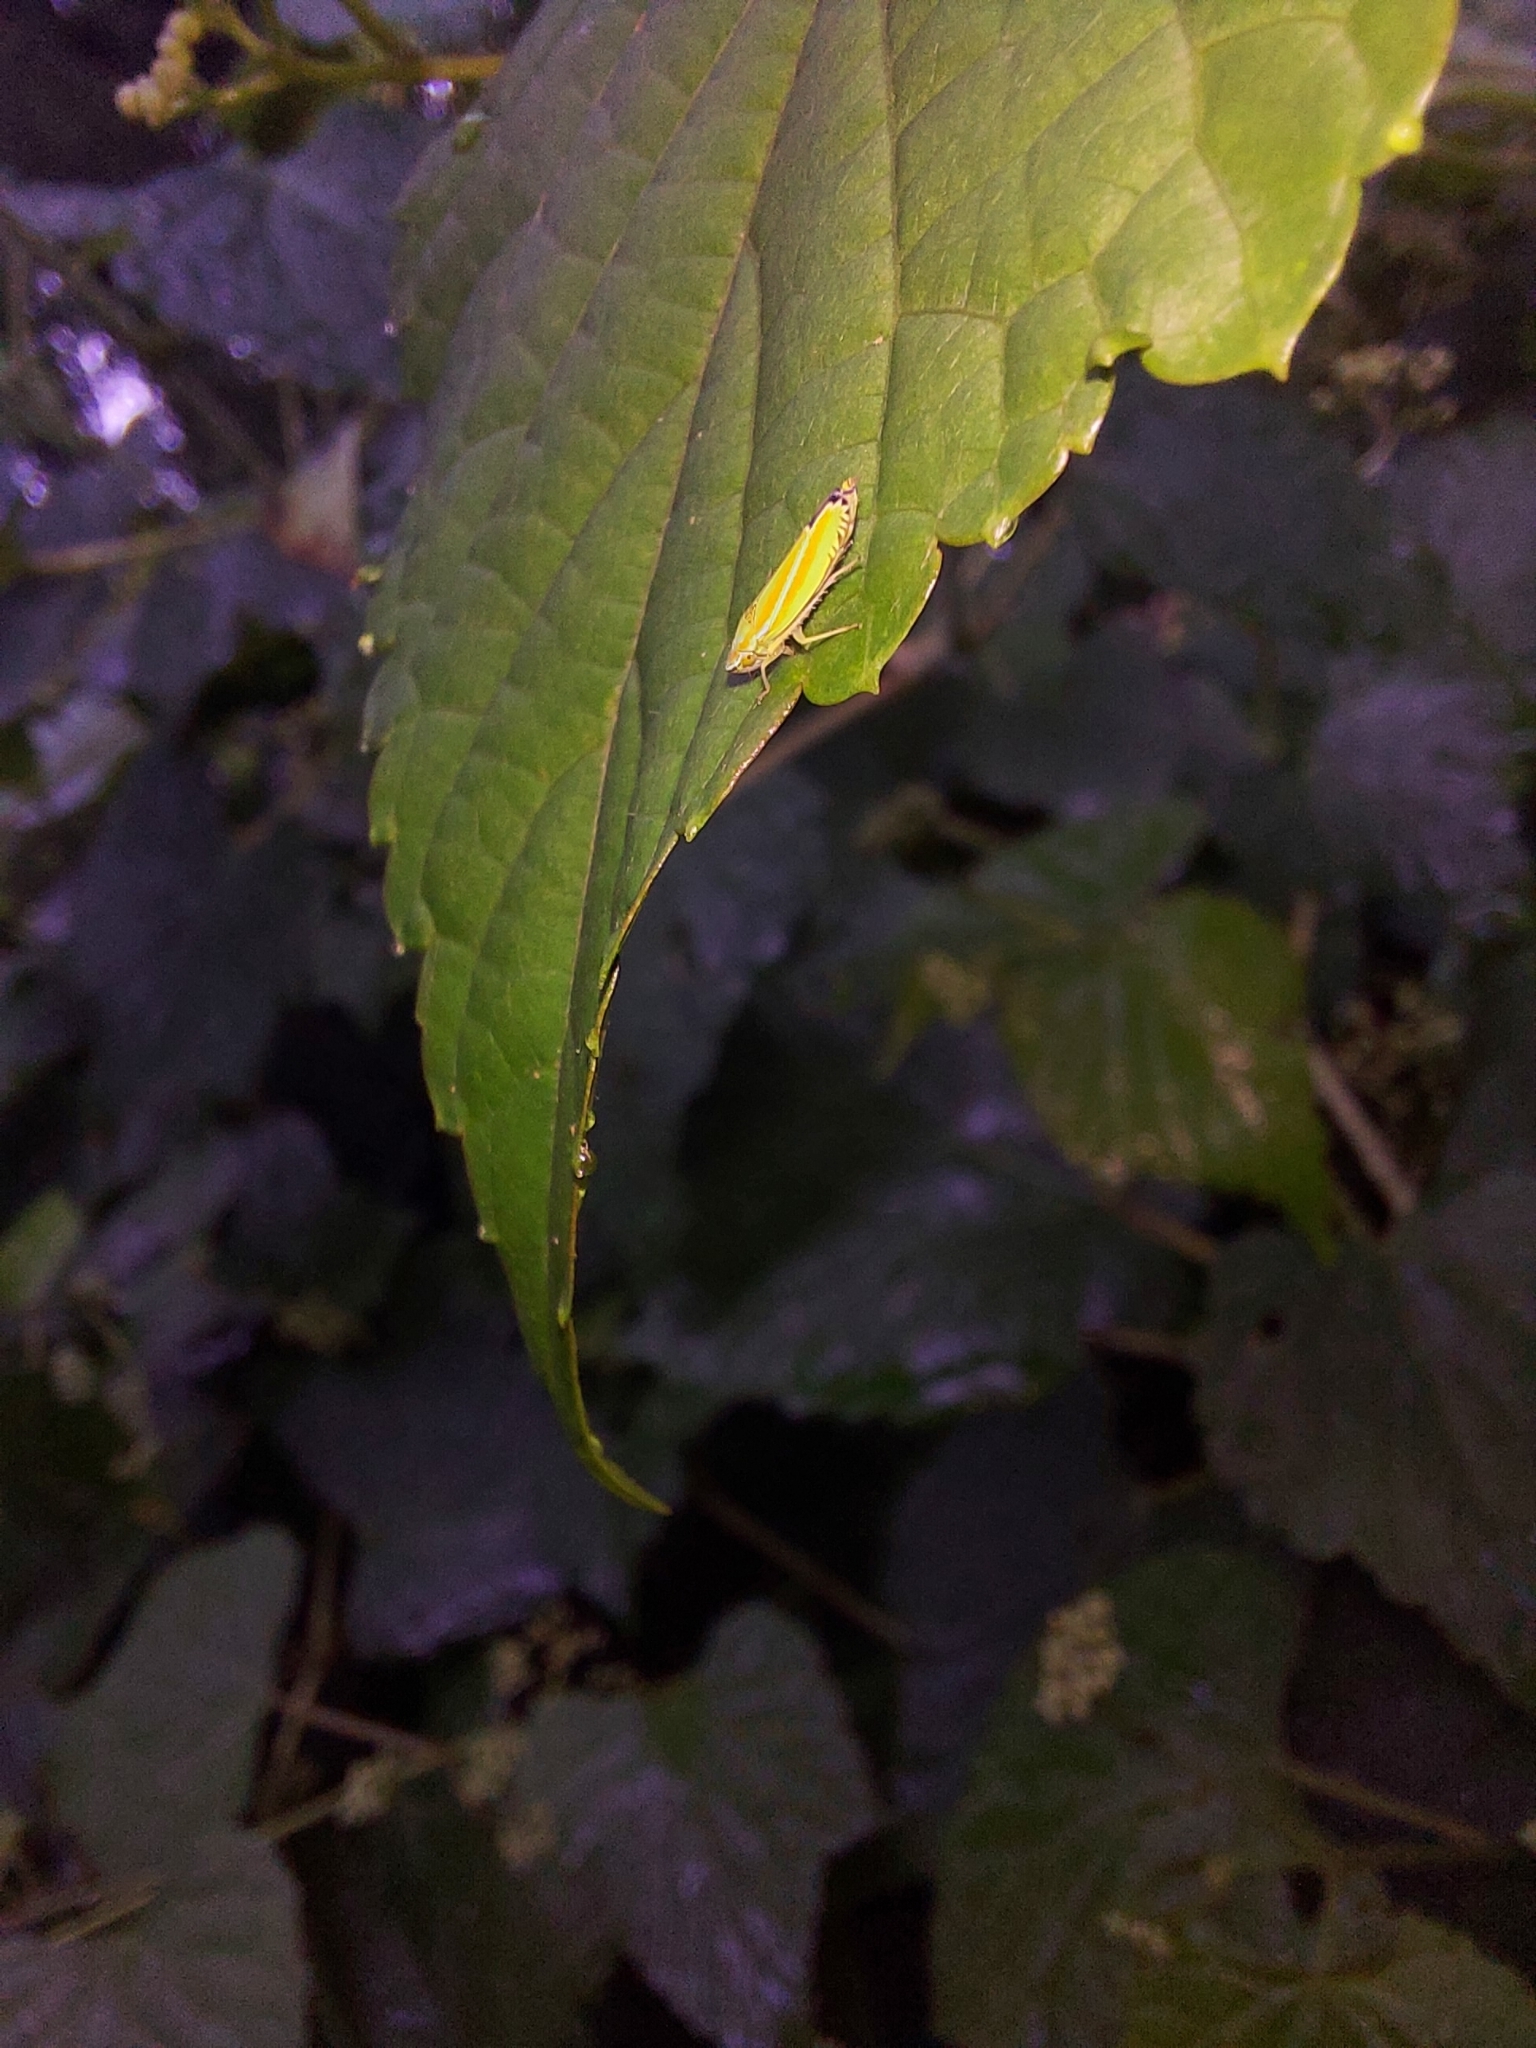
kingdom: Animalia
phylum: Arthropoda
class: Insecta
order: Hemiptera
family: Cicadellidae
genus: Graphocephala
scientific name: Graphocephala versuta
